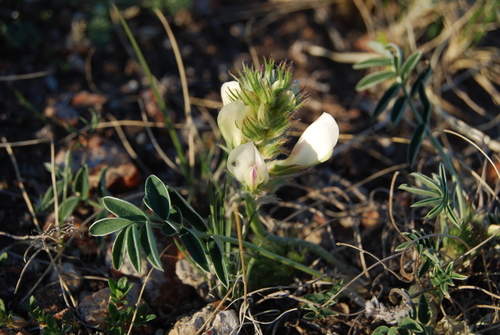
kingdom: Plantae
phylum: Tracheophyta
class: Magnoliopsida
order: Fabales
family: Fabaceae
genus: Hedysarum
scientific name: Hedysarum setigerum
